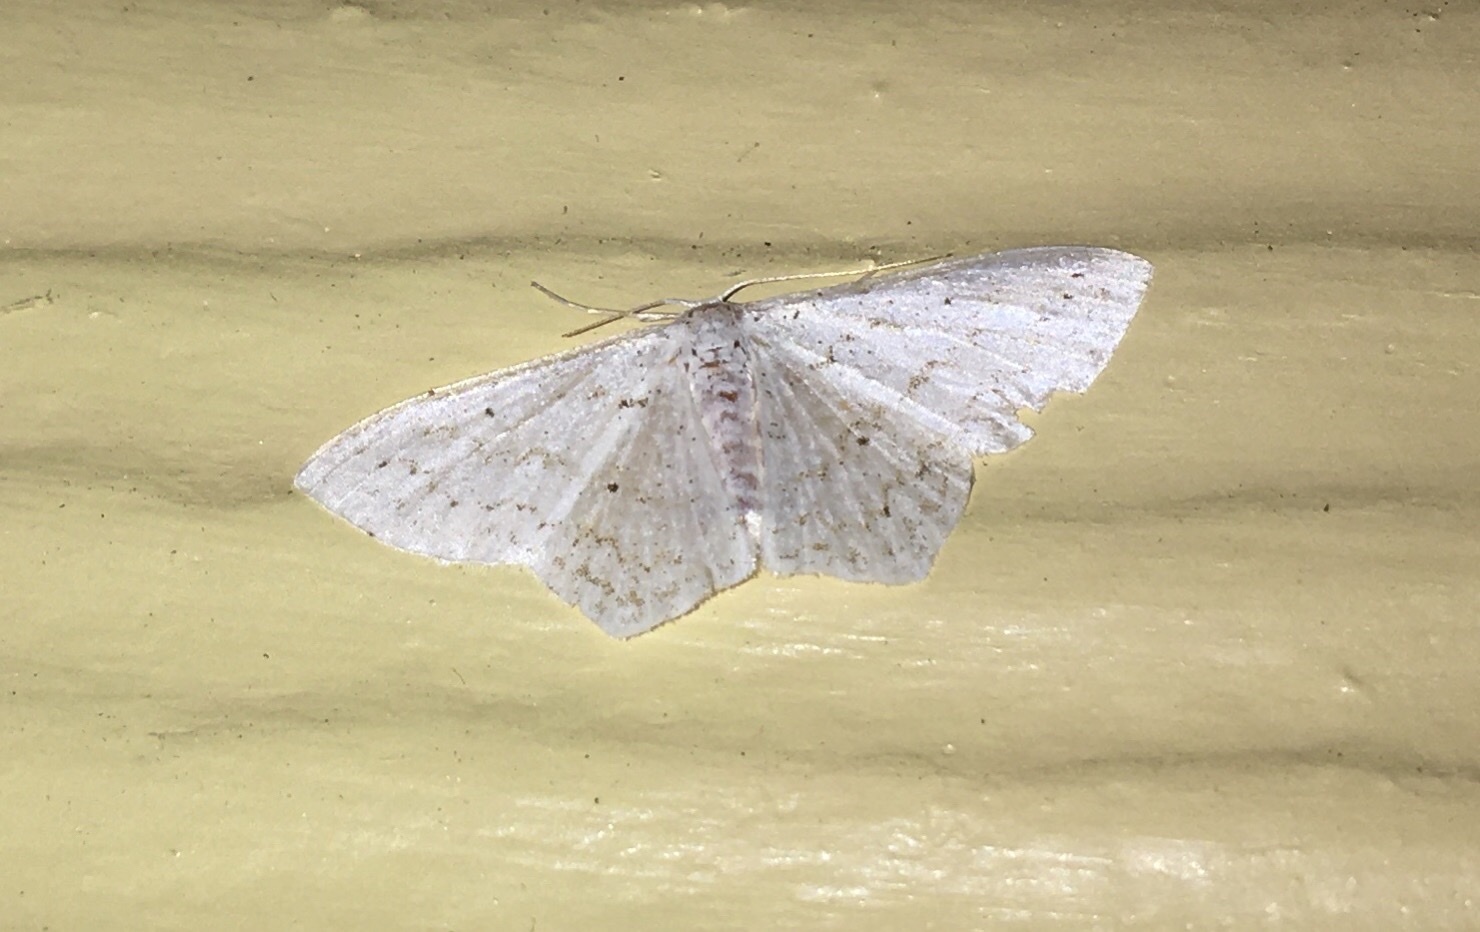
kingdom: Animalia
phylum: Arthropoda
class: Insecta
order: Lepidoptera
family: Geometridae
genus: Idaea
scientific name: Idaea tacturata
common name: Dot-lined wave
